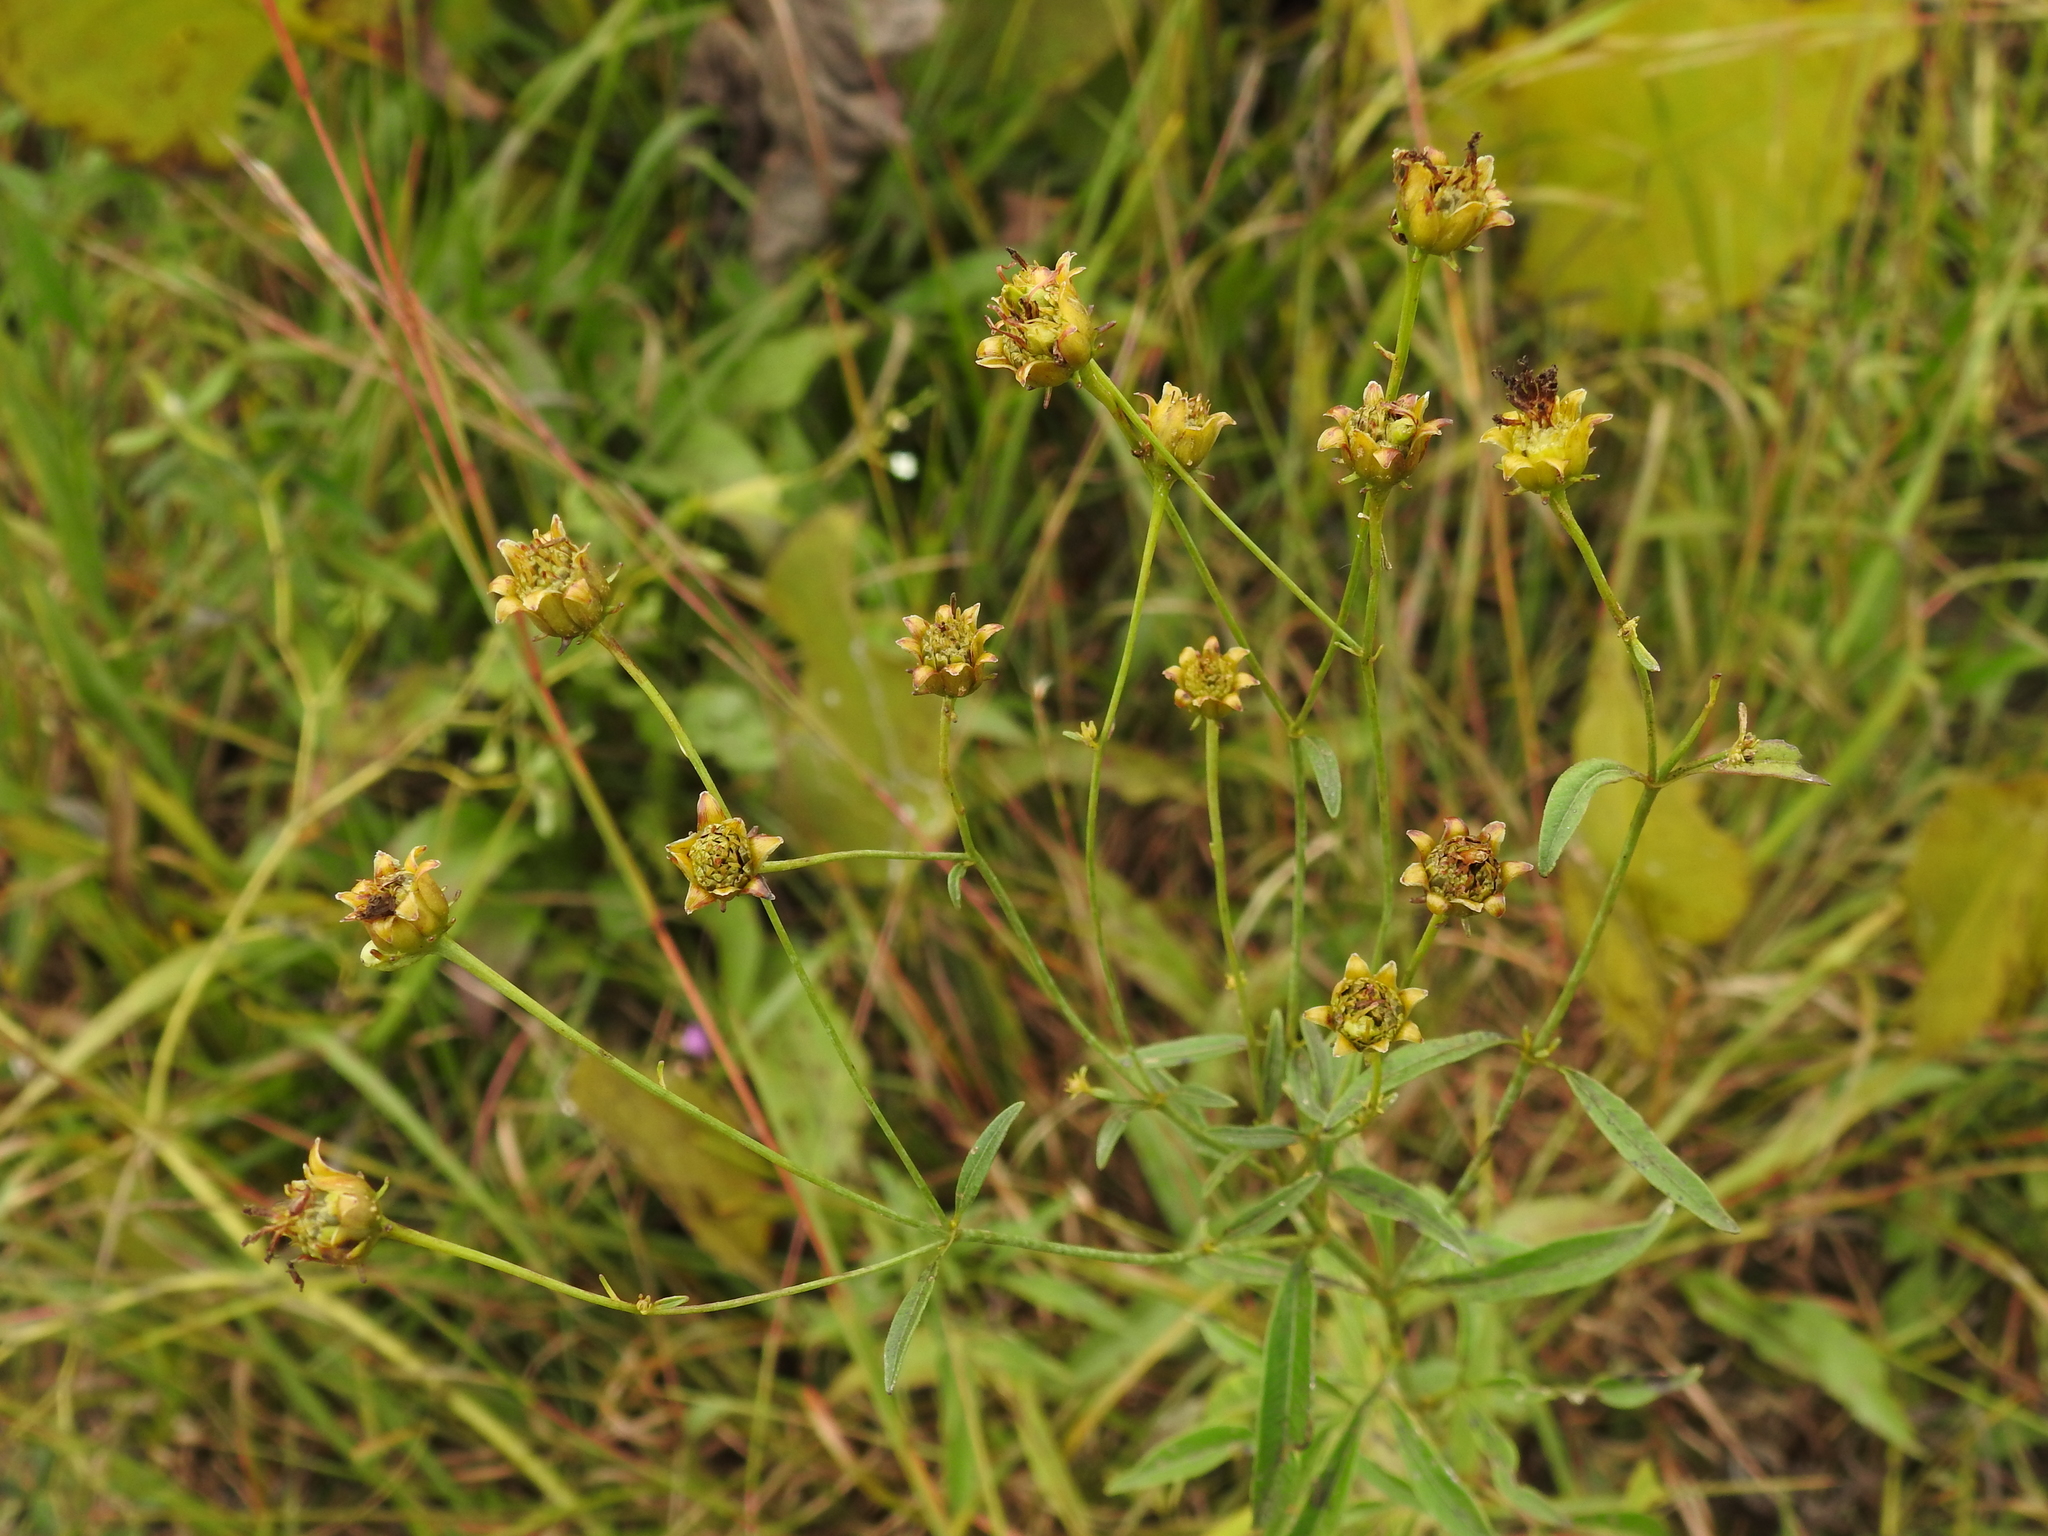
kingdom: Plantae
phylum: Tracheophyta
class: Magnoliopsida
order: Asterales
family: Asteraceae
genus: Coreopsis
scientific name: Coreopsis tripteris
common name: Tall coreopsis
